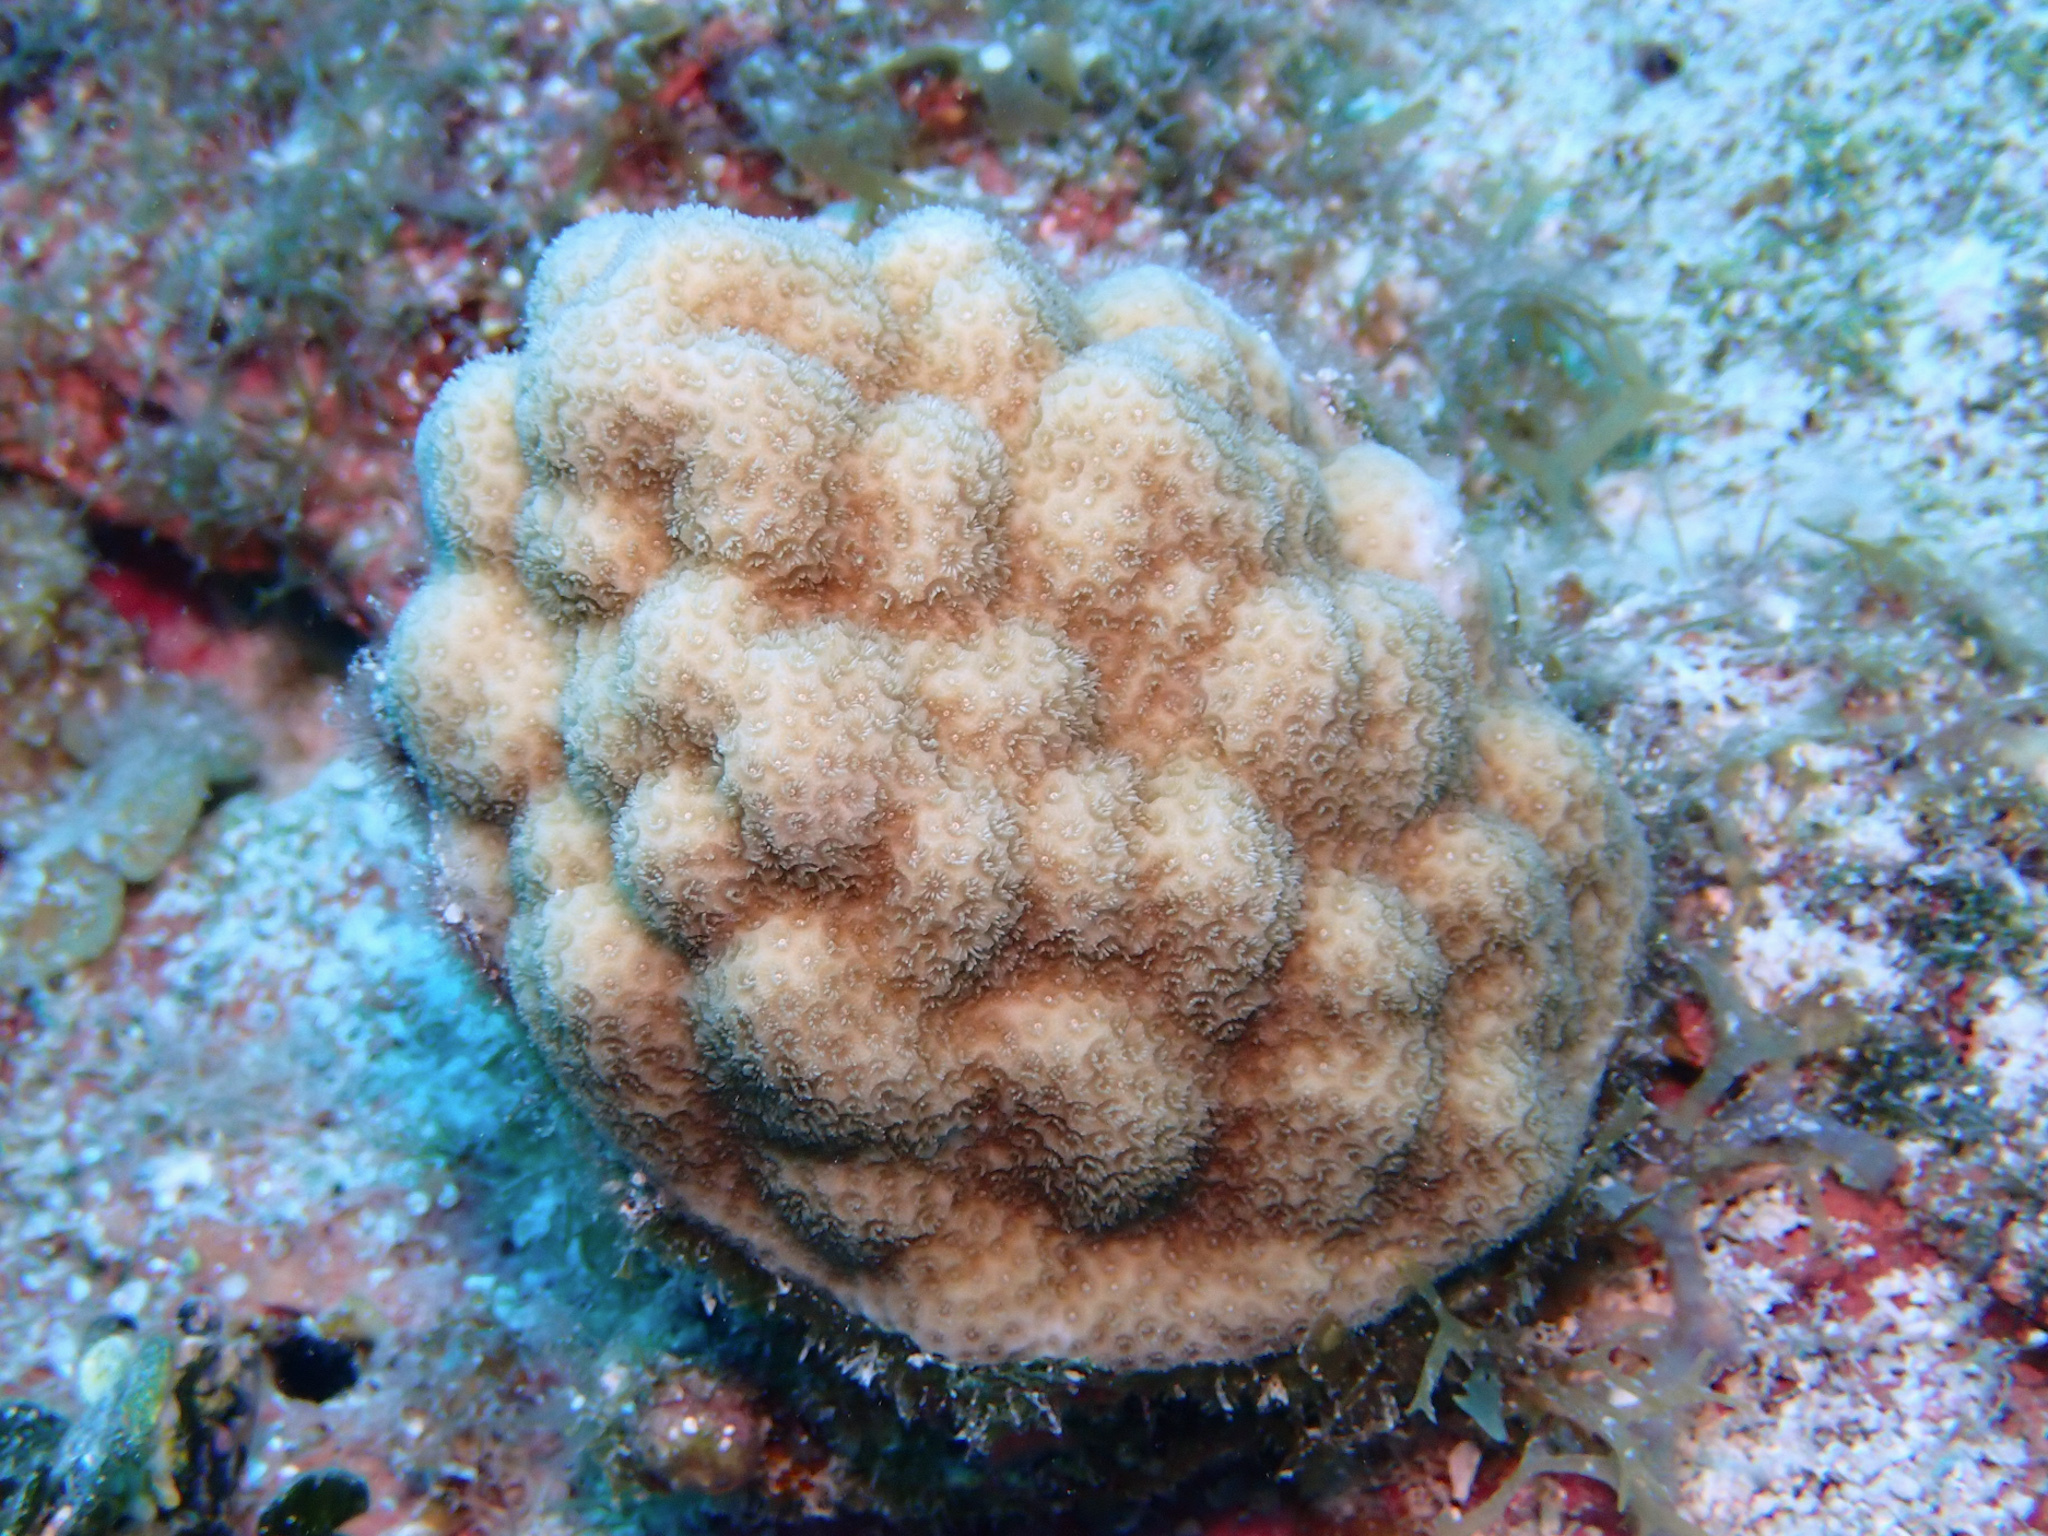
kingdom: Animalia
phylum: Cnidaria
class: Anthozoa
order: Scleractinia
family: Poritidae
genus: Porites
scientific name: Porites astreoides
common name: Mustard hill coral
